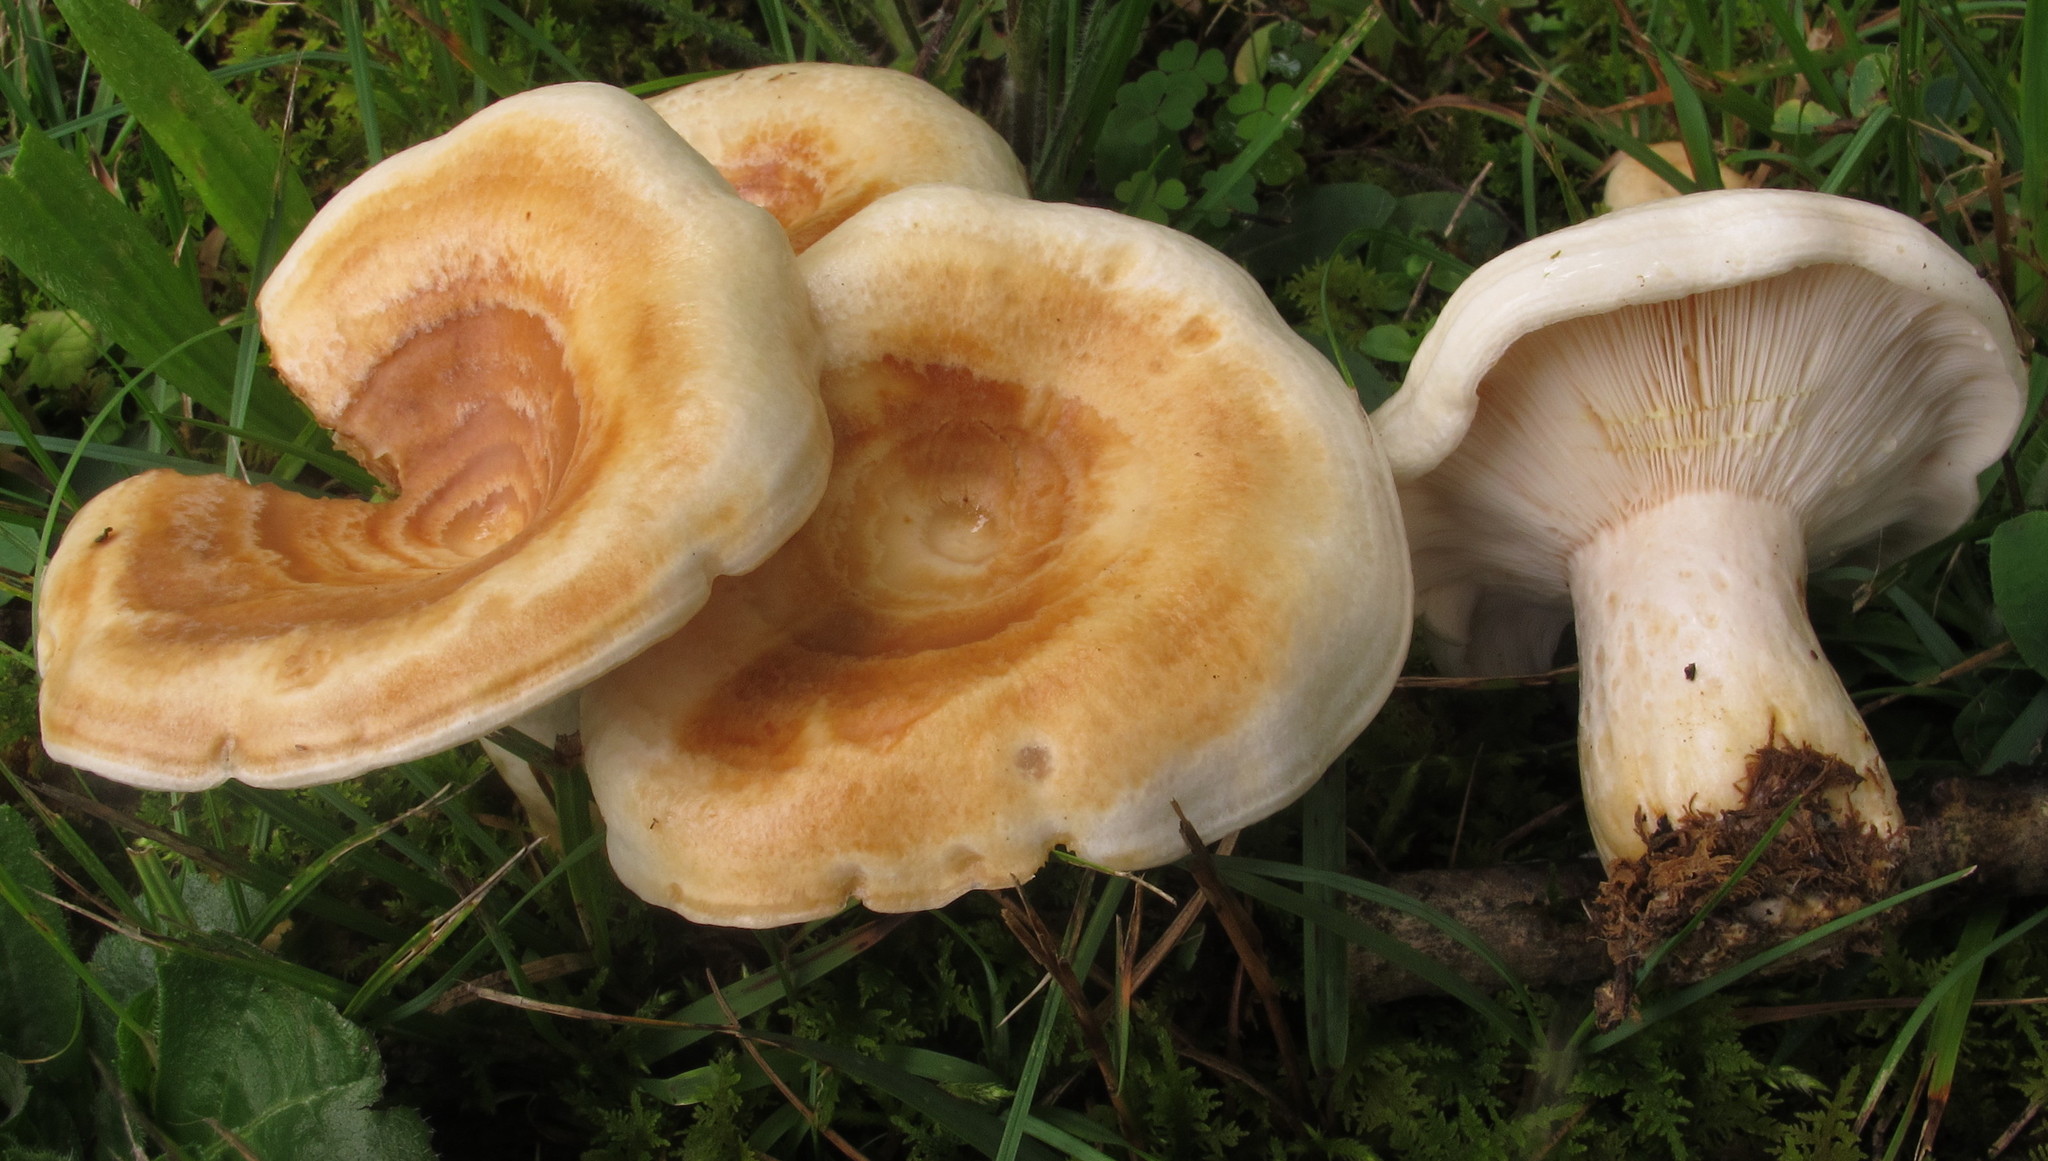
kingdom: Fungi
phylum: Basidiomycota
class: Agaricomycetes
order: Russulales
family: Russulaceae
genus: Lactarius
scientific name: Lactarius maculatipes
